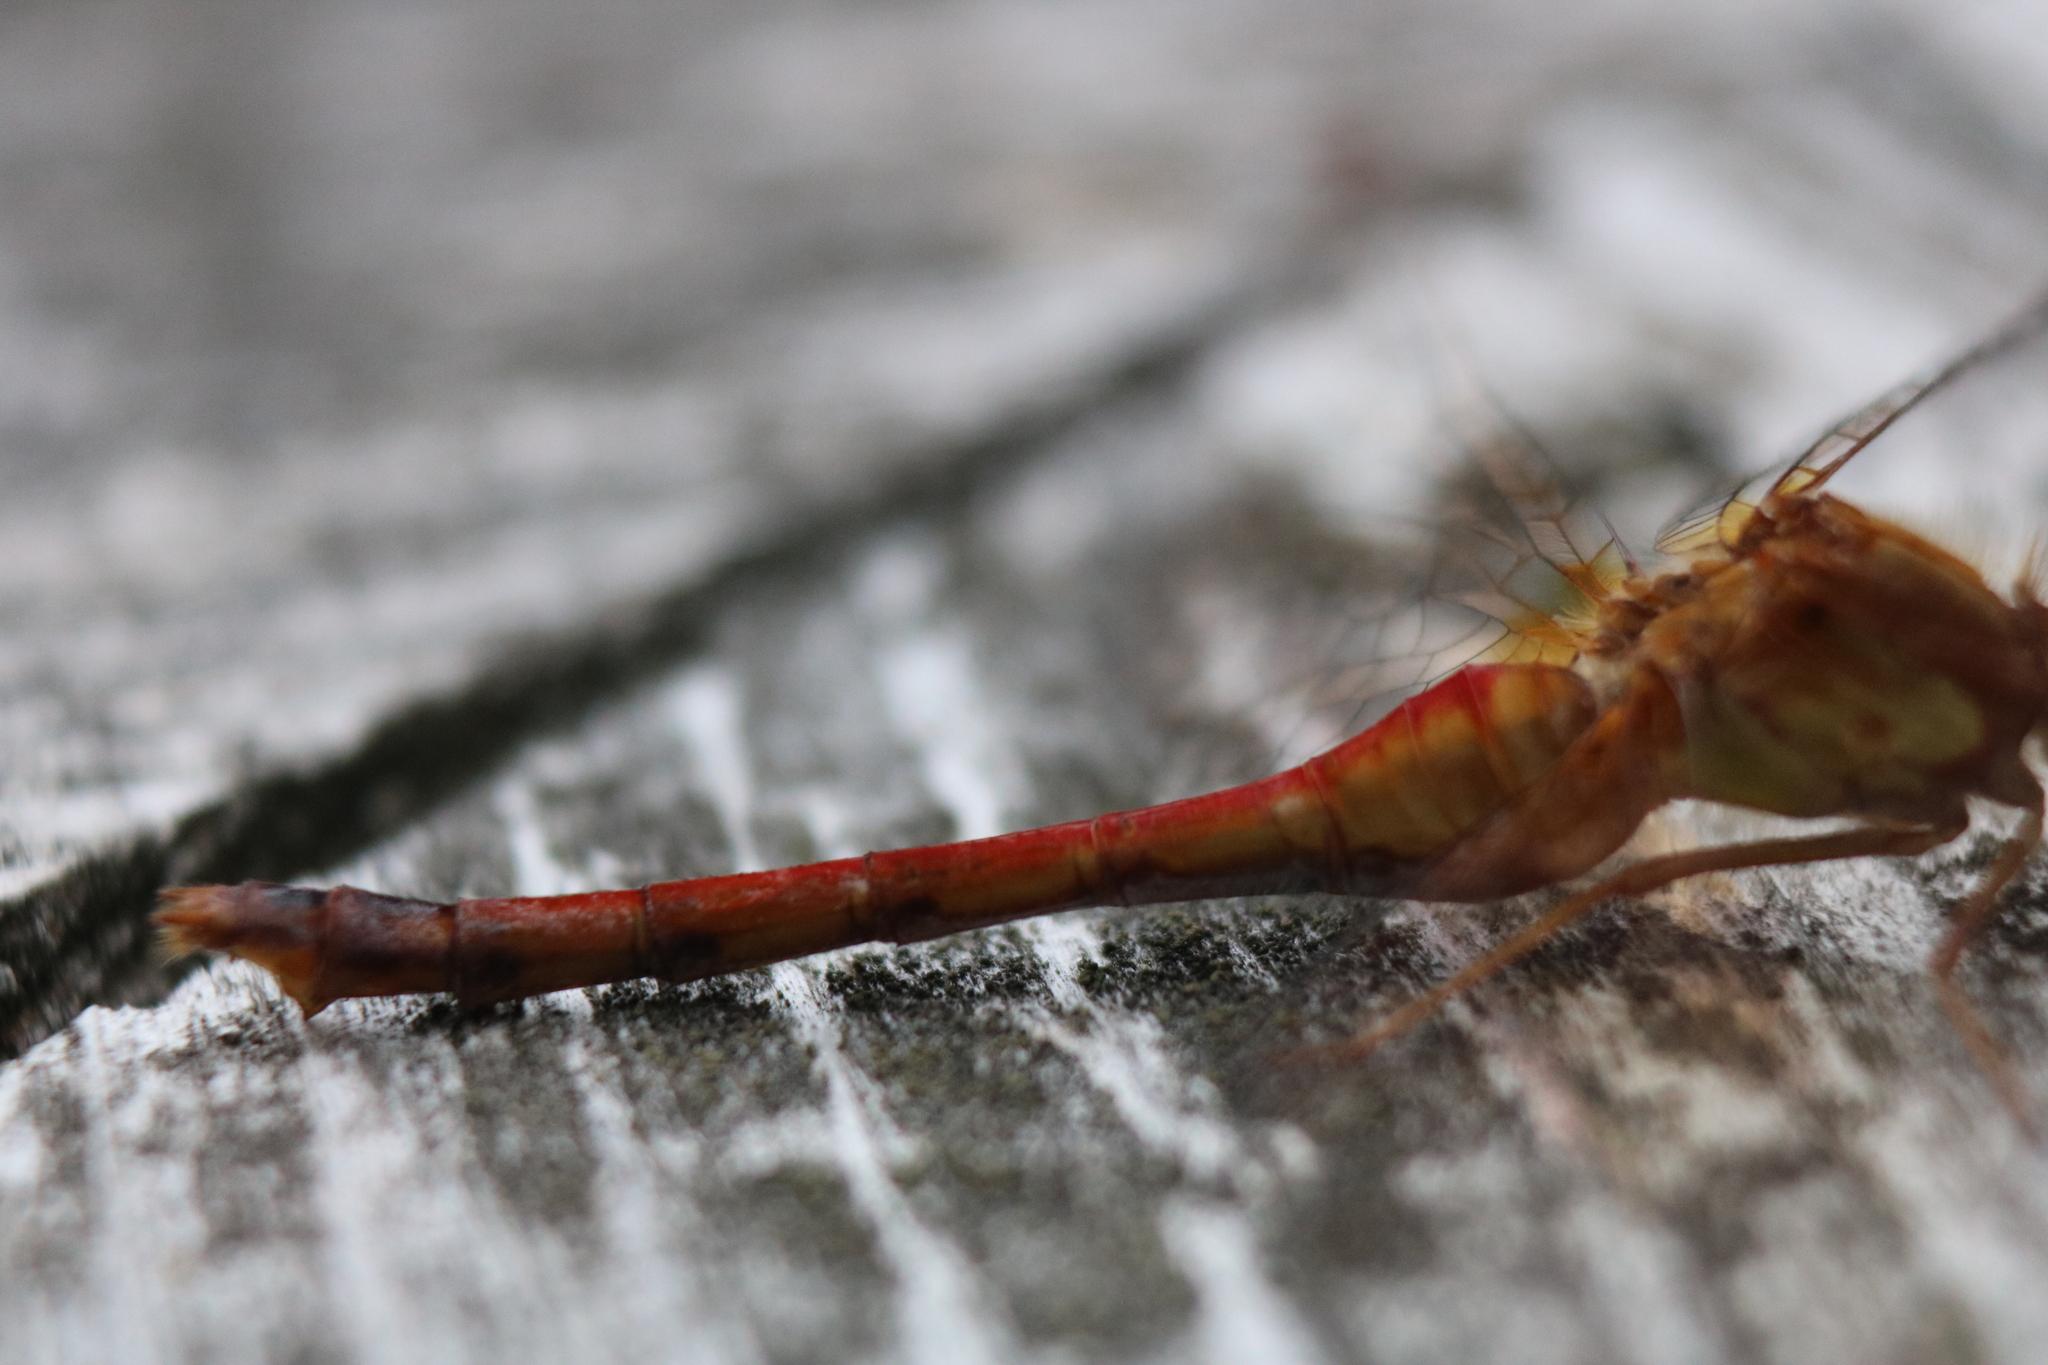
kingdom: Animalia
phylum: Arthropoda
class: Insecta
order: Odonata
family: Libellulidae
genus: Sympetrum
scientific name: Sympetrum vicinum
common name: Autumn meadowhawk
